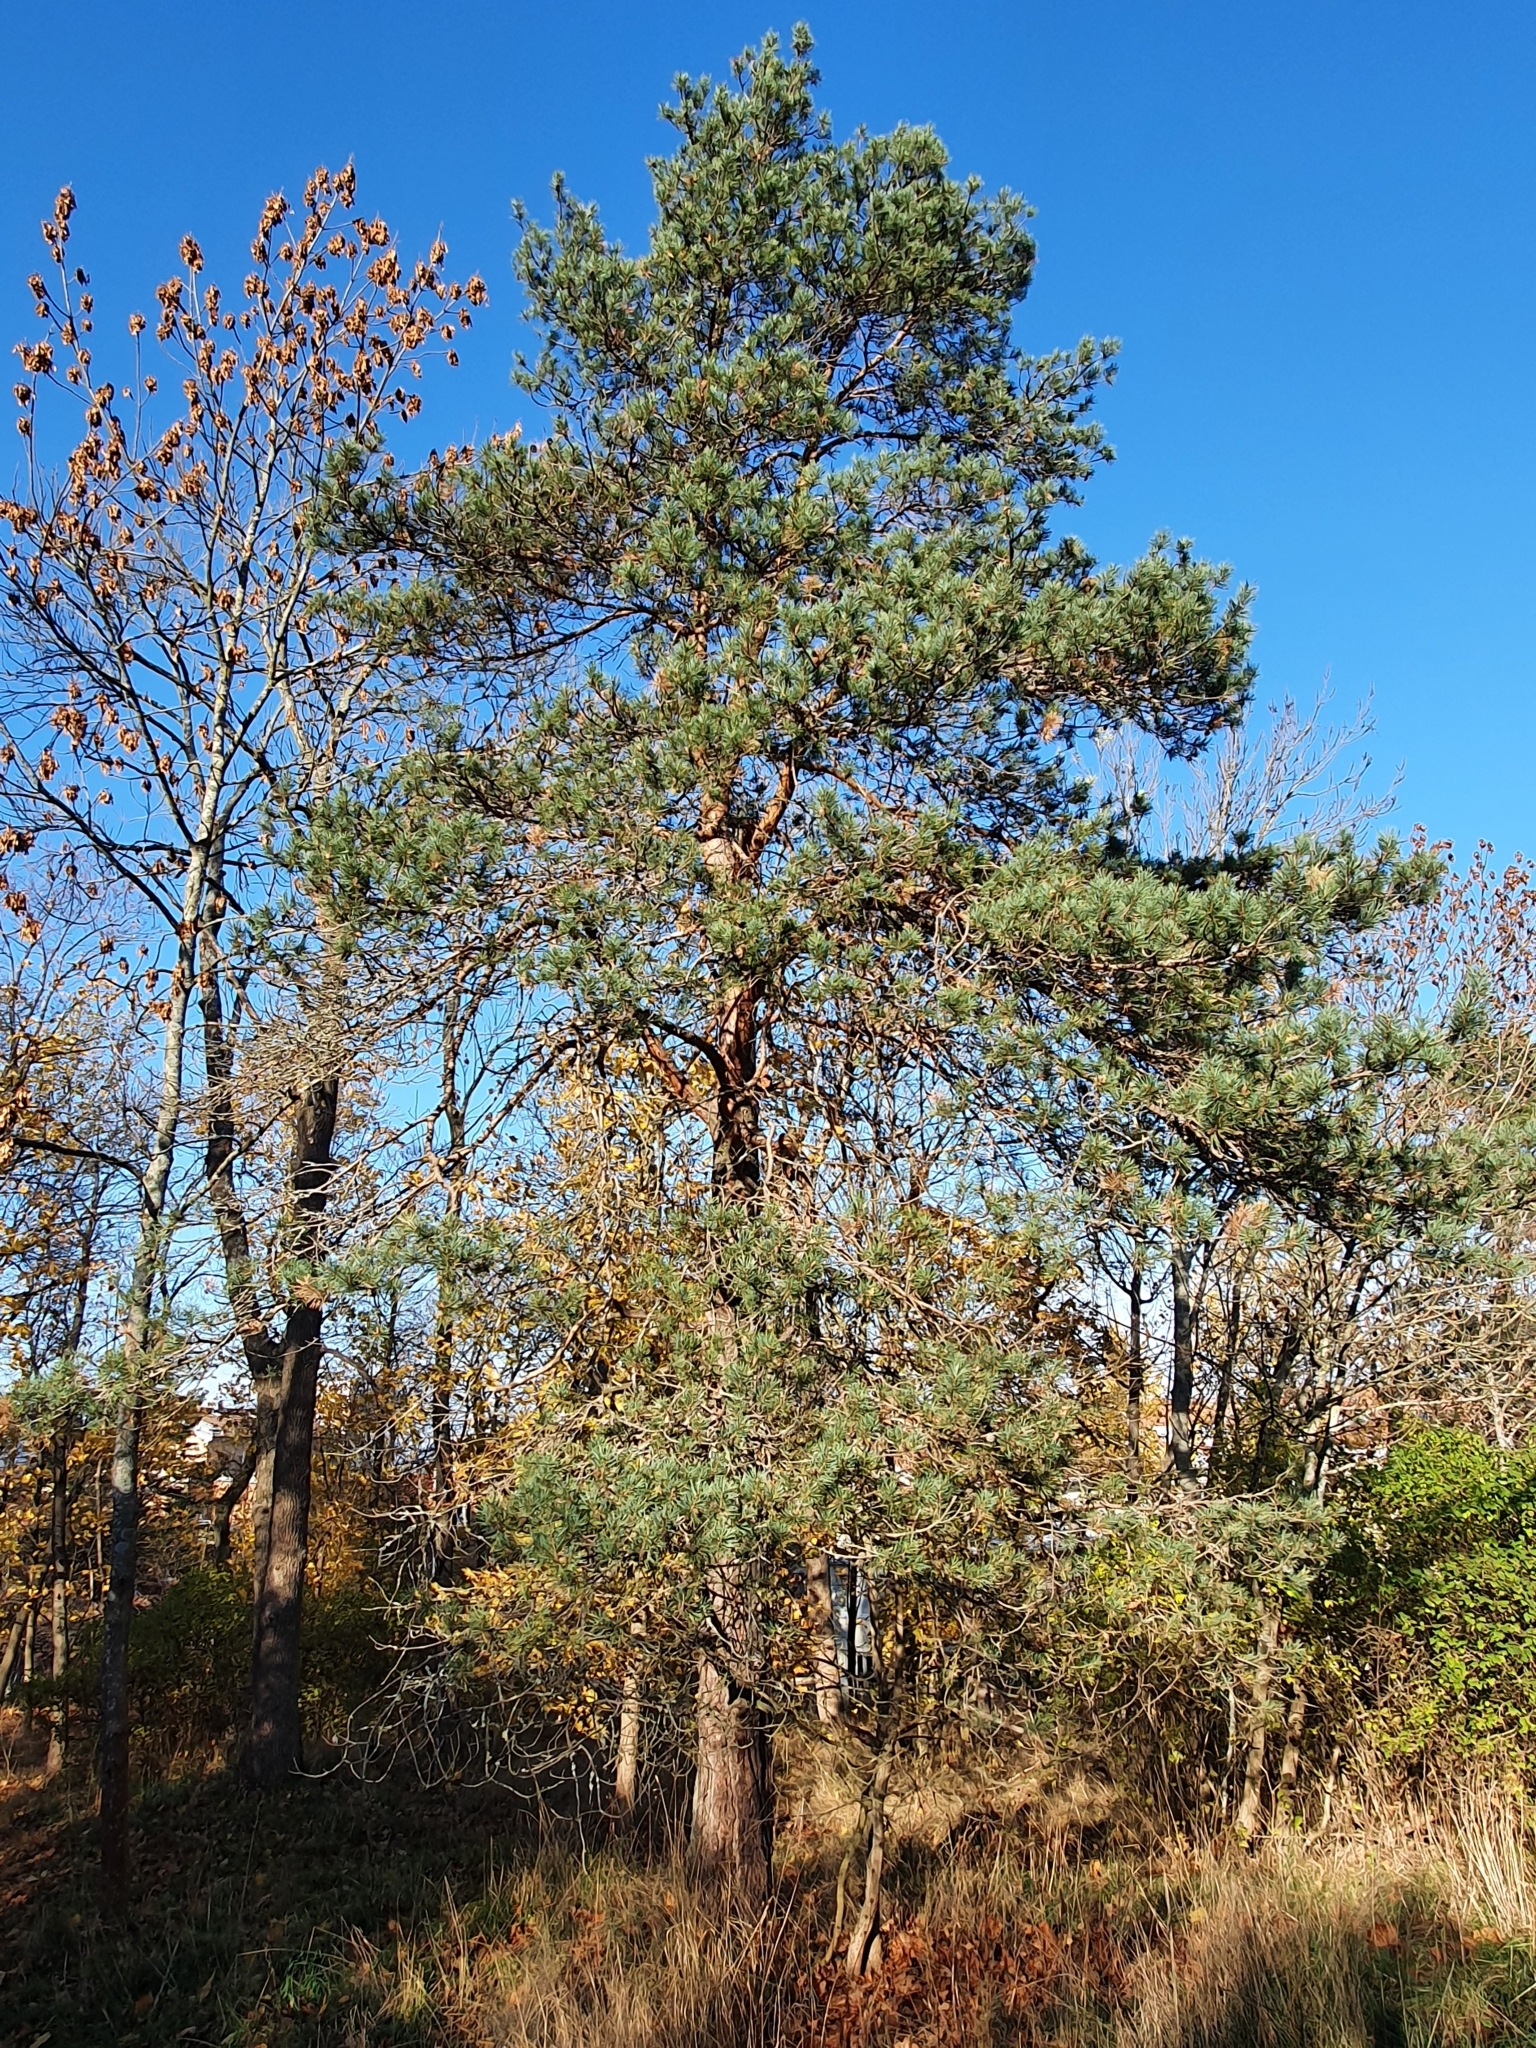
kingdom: Plantae
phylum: Tracheophyta
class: Pinopsida
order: Pinales
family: Pinaceae
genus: Pinus
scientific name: Pinus sylvestris
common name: Scots pine
